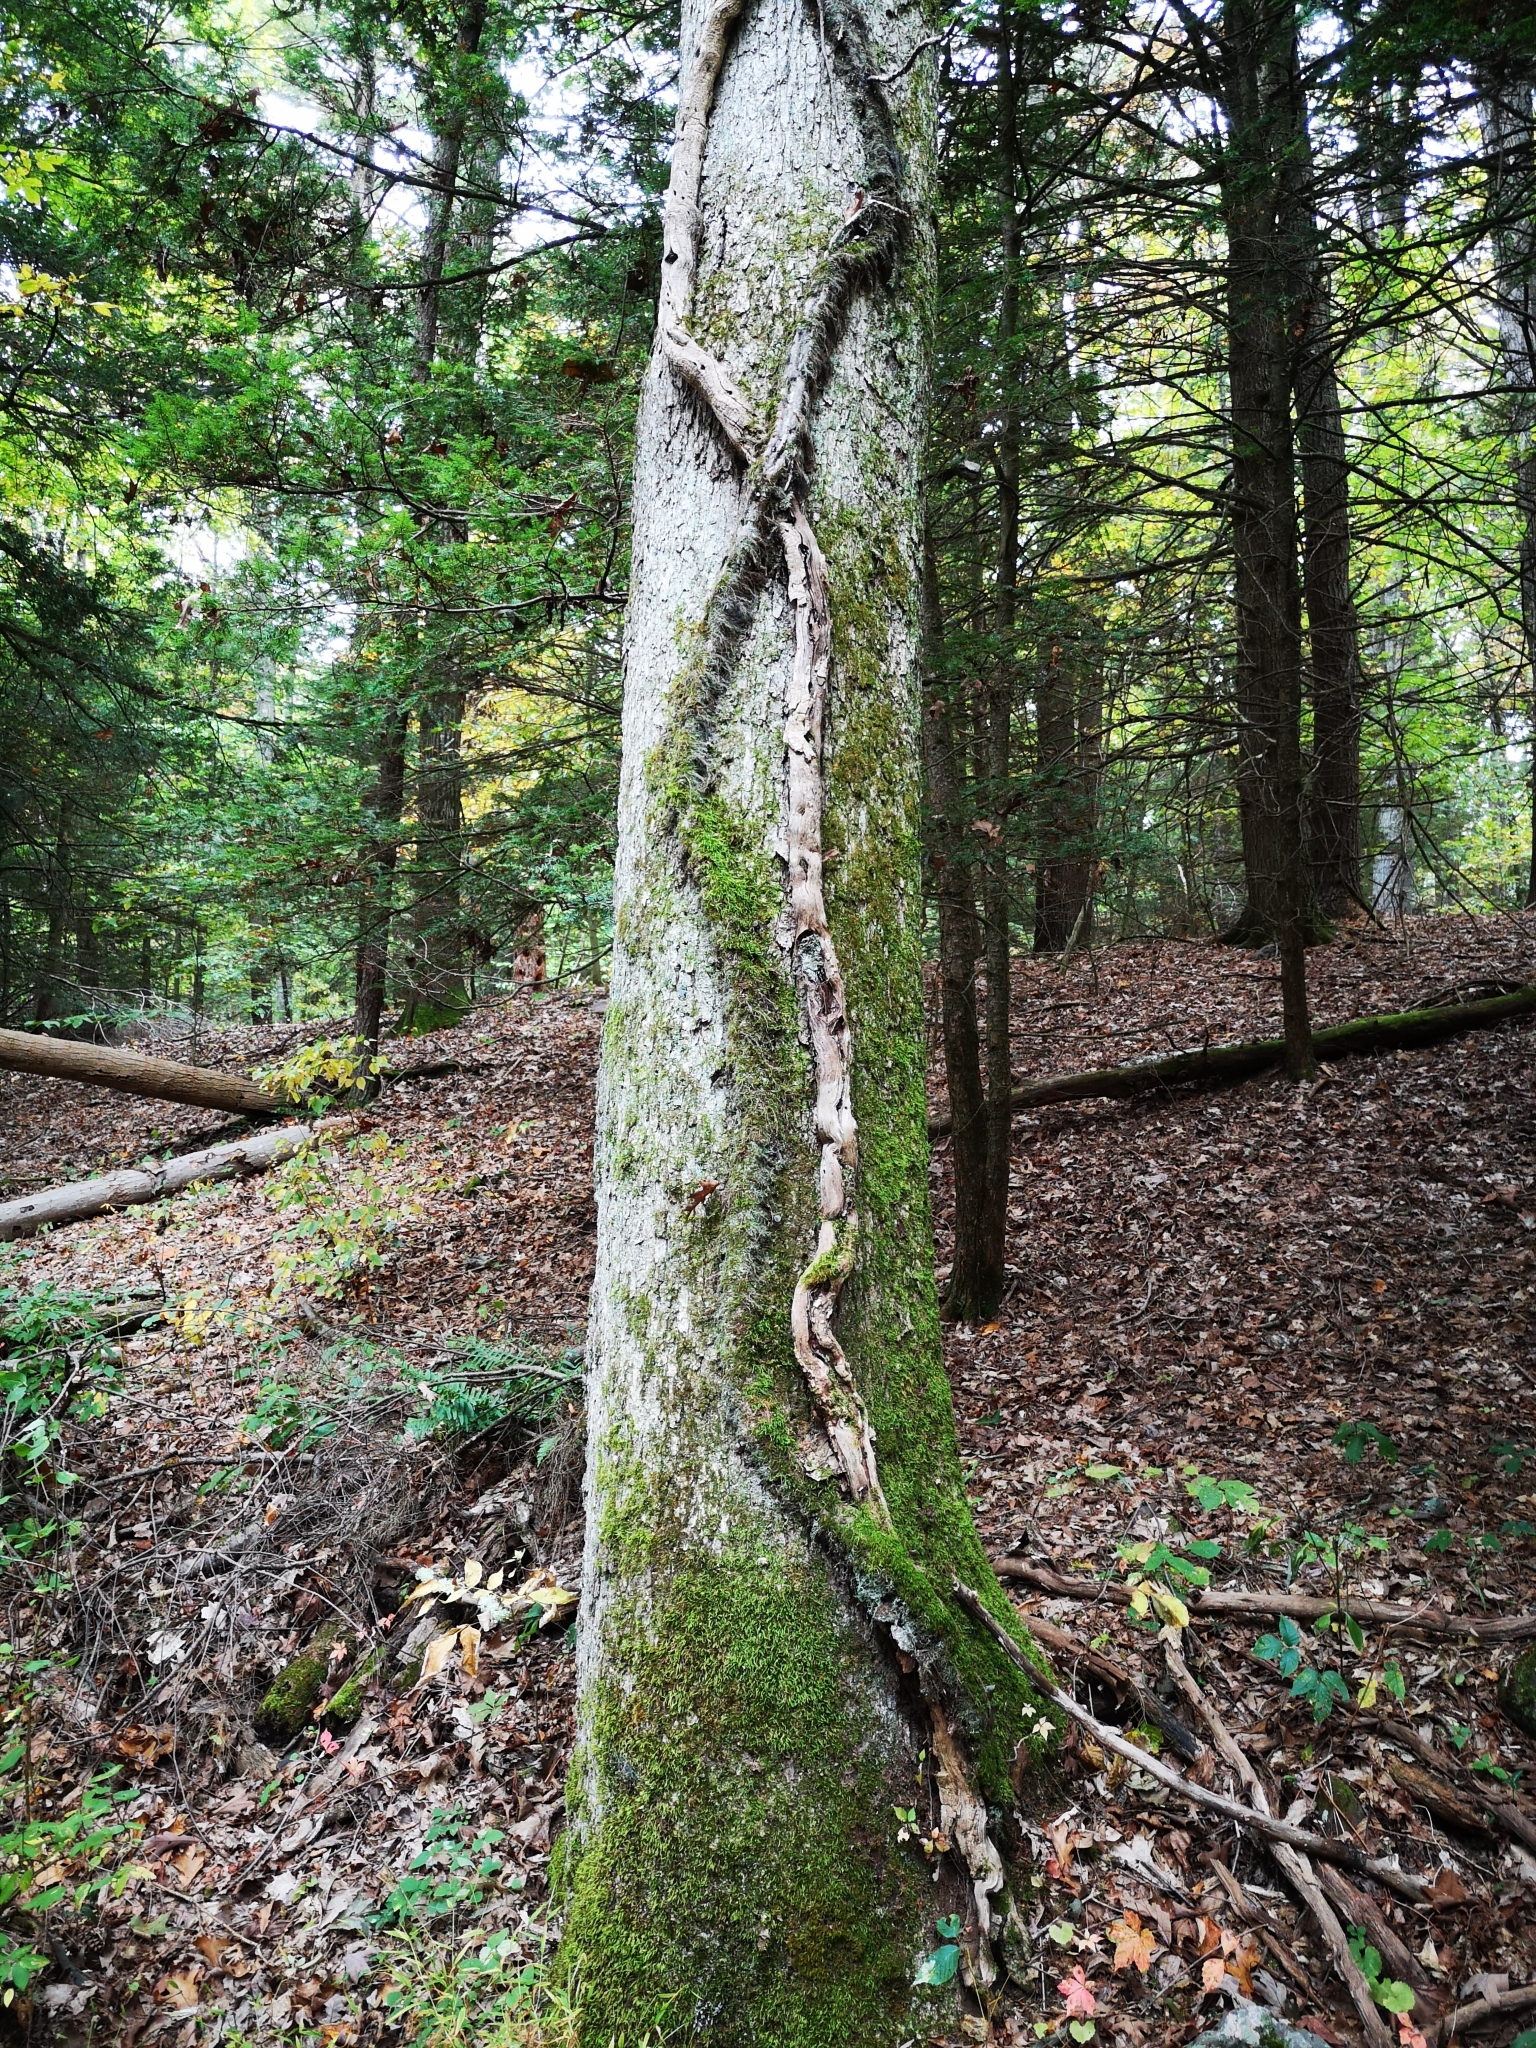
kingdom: Plantae
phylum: Tracheophyta
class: Magnoliopsida
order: Sapindales
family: Anacardiaceae
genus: Toxicodendron
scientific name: Toxicodendron radicans
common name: Poison ivy
